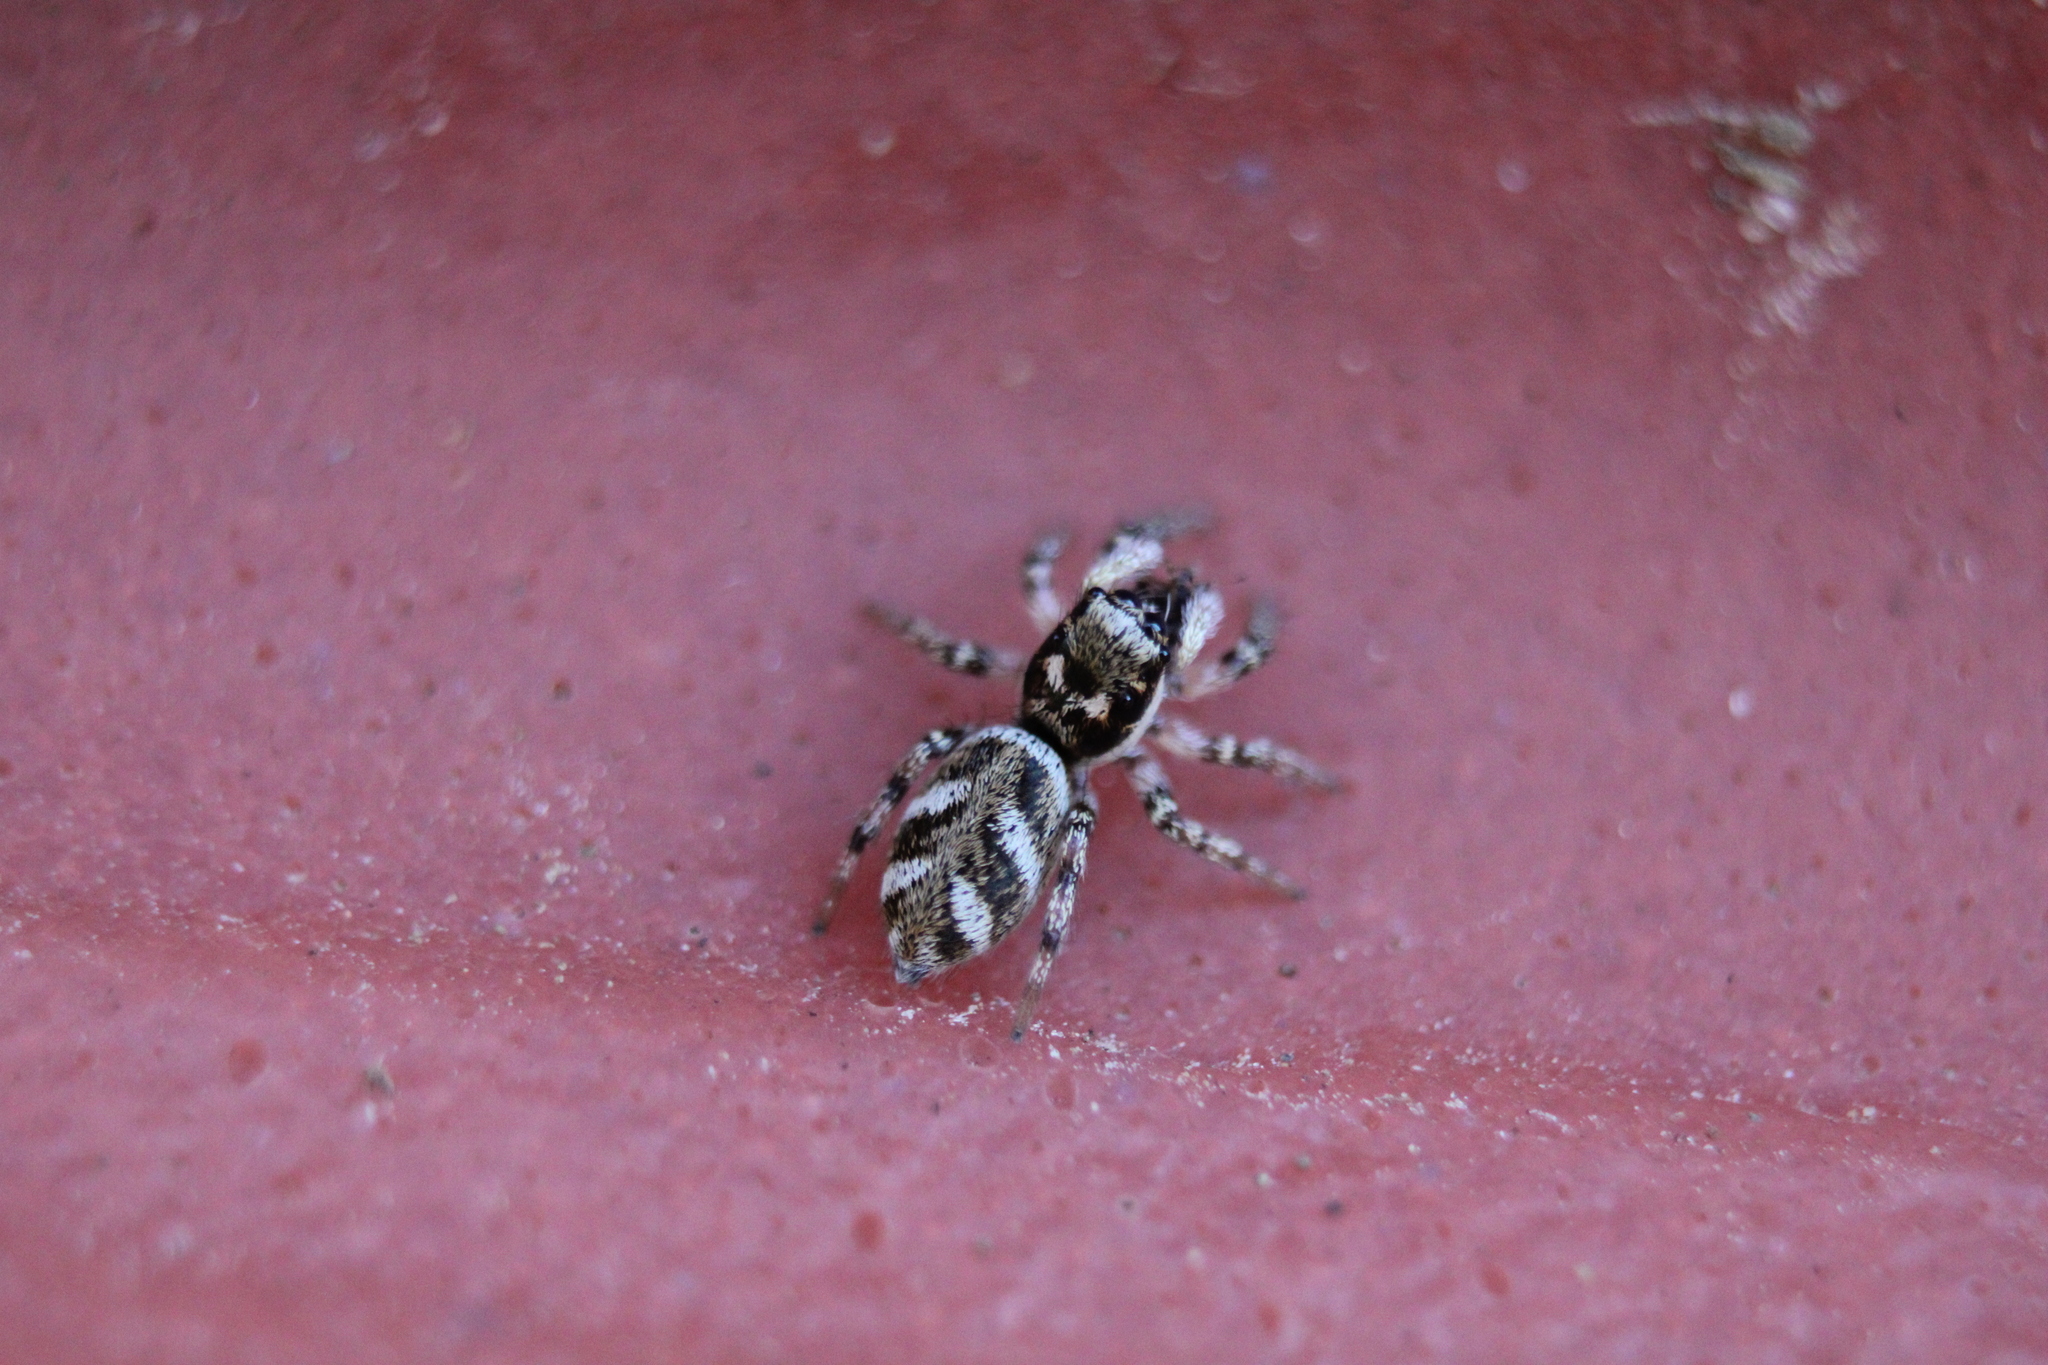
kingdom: Animalia
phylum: Arthropoda
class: Arachnida
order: Araneae
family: Salticidae
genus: Salticus
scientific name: Salticus scenicus
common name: Zebra jumper
